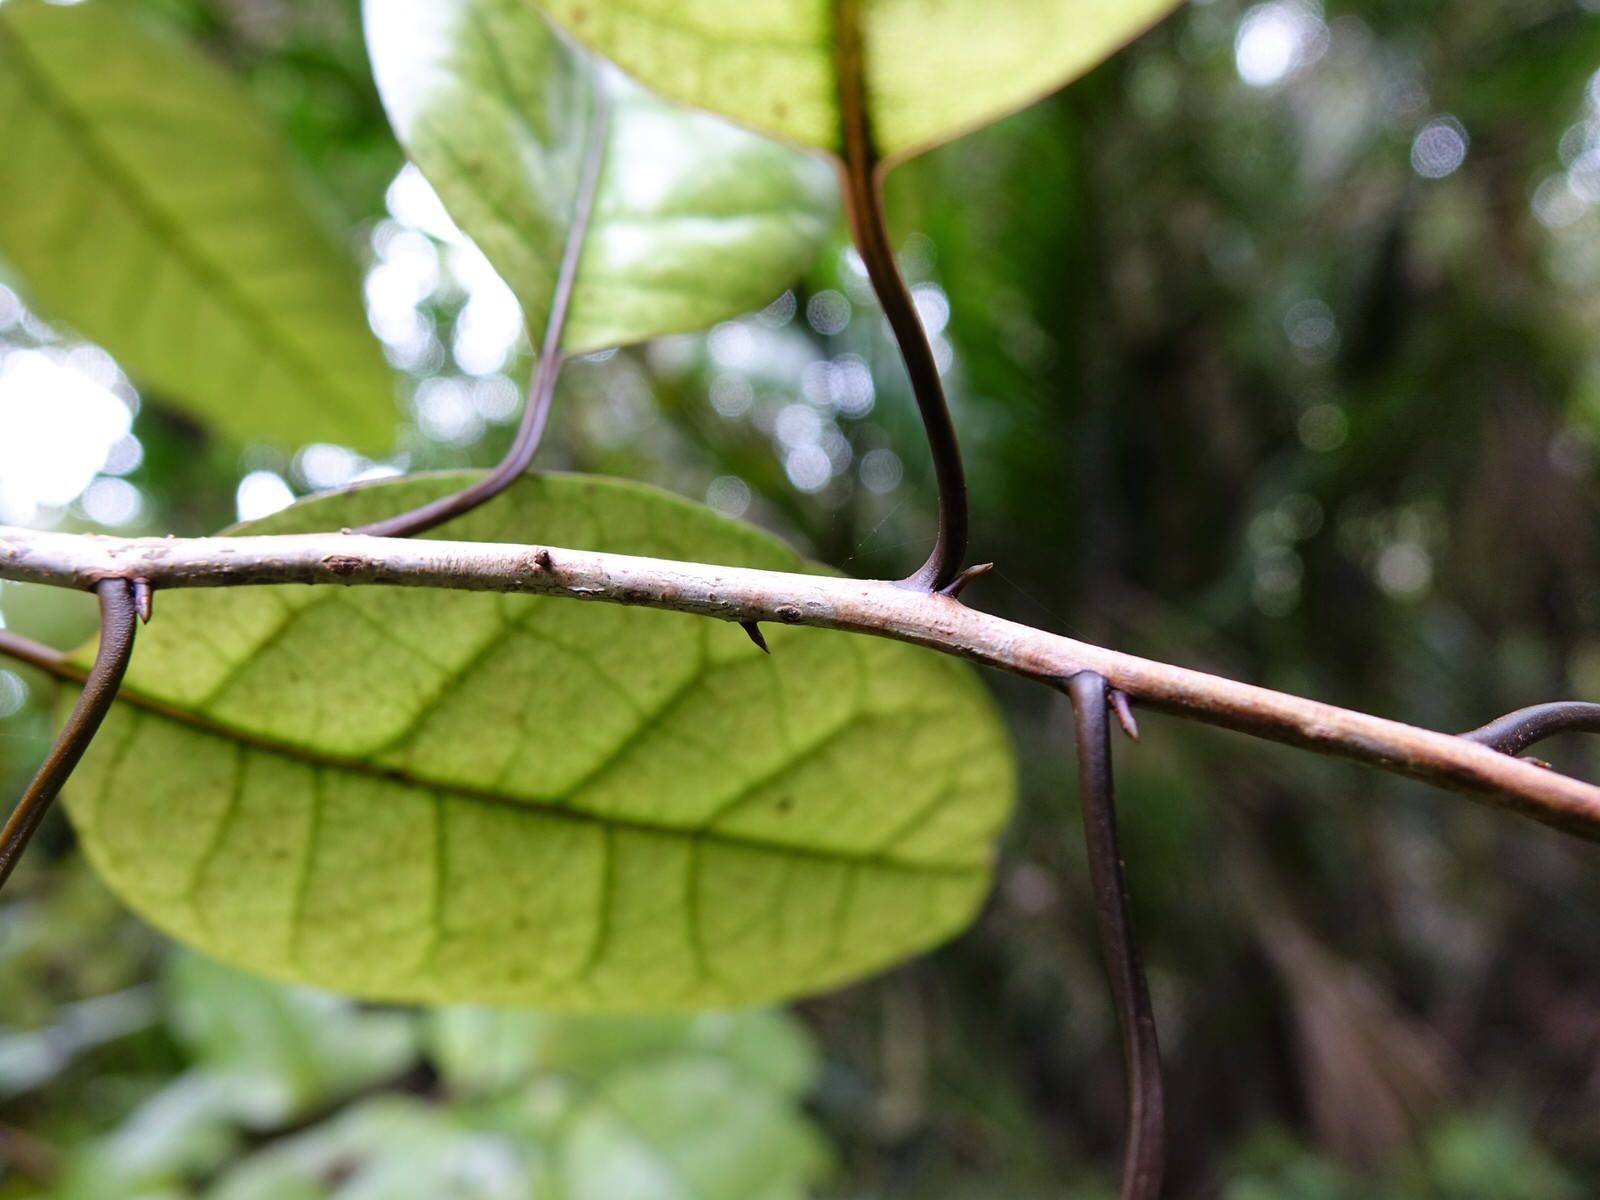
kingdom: Plantae
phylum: Tracheophyta
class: Magnoliopsida
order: Laurales
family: Lauraceae
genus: Litsea
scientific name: Litsea calicaris
